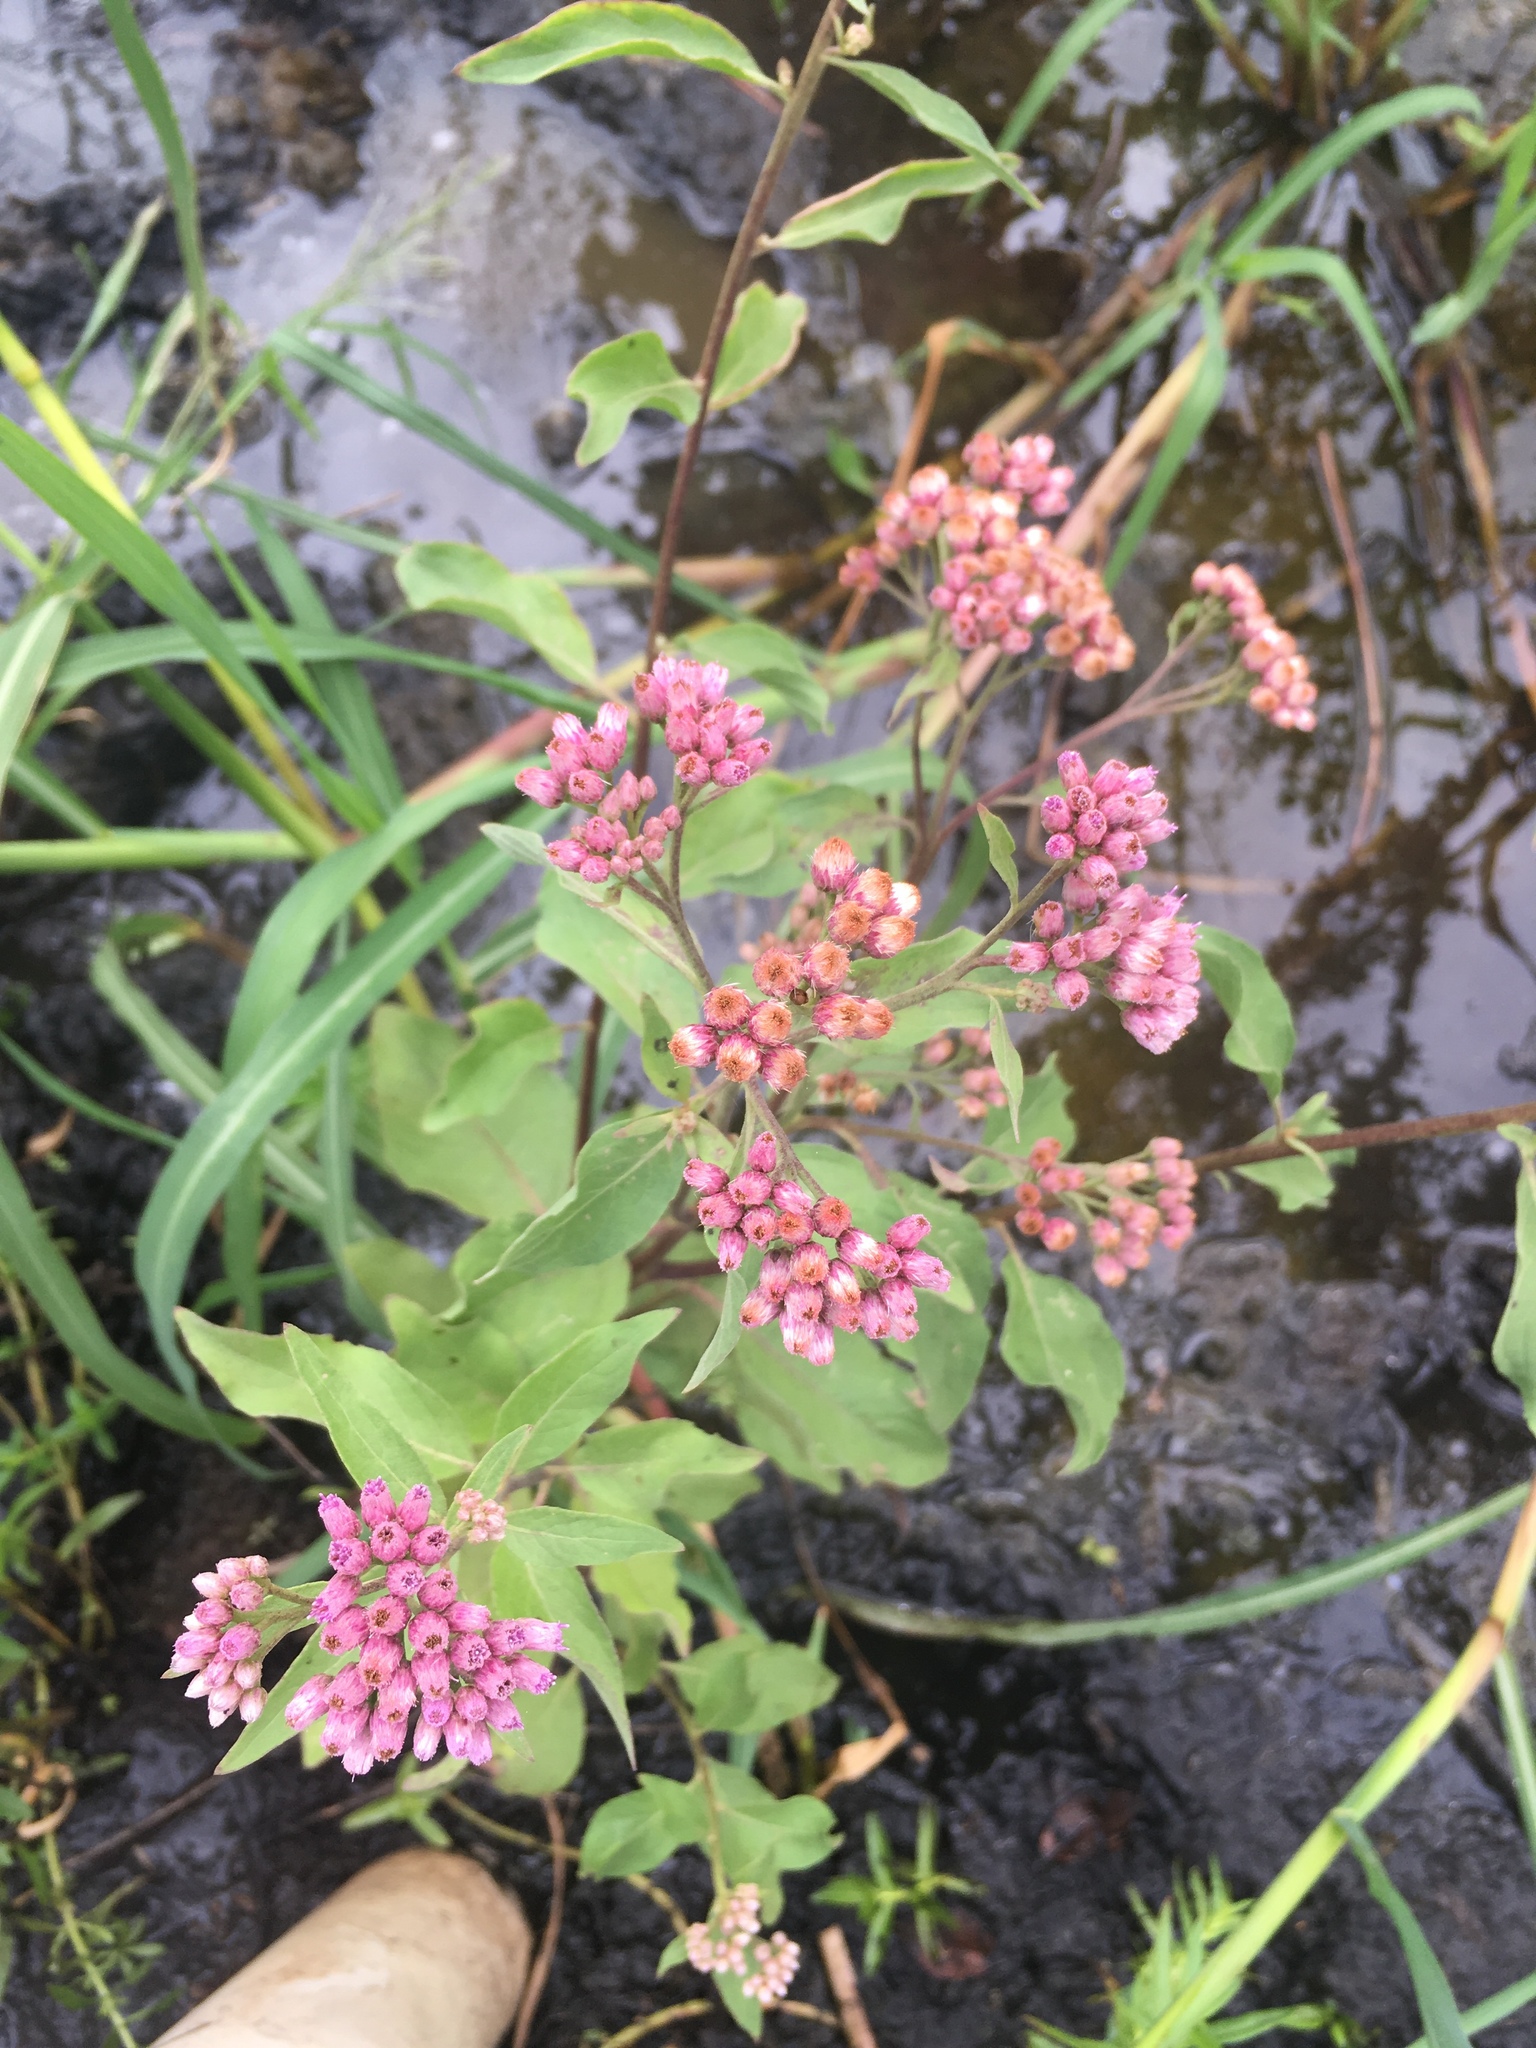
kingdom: Plantae
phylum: Tracheophyta
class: Magnoliopsida
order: Asterales
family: Asteraceae
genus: Pluchea
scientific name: Pluchea odorata
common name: Saltmarsh fleabane
